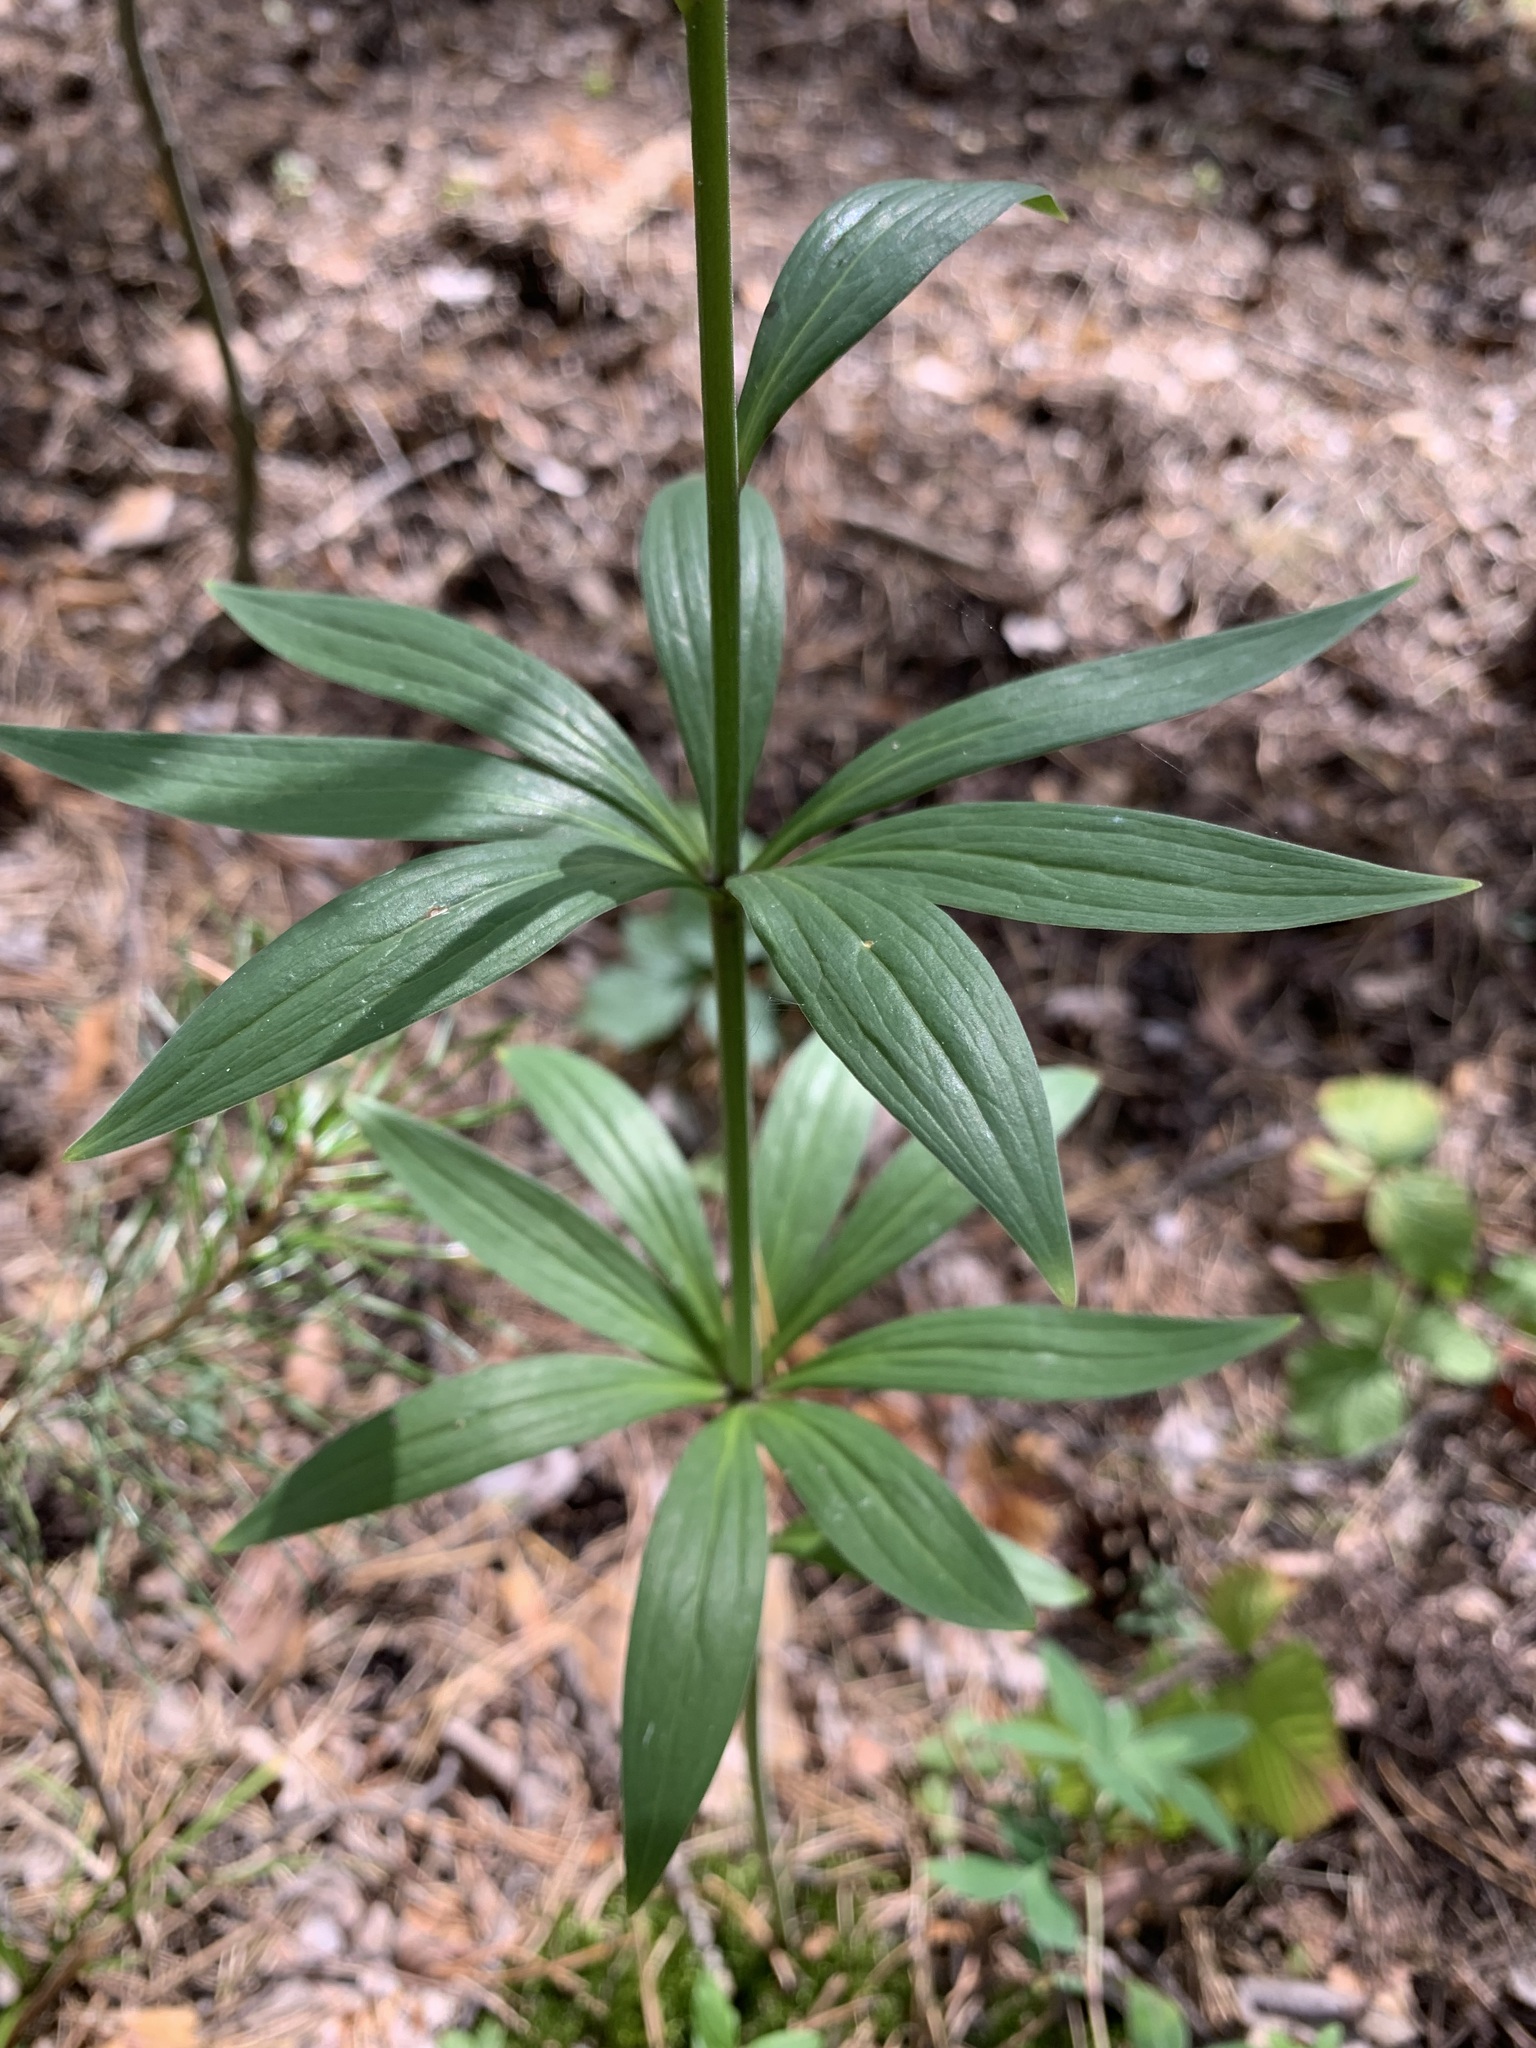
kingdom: Plantae
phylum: Tracheophyta
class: Liliopsida
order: Liliales
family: Liliaceae
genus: Lilium
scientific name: Lilium martagon
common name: Martagon lily
